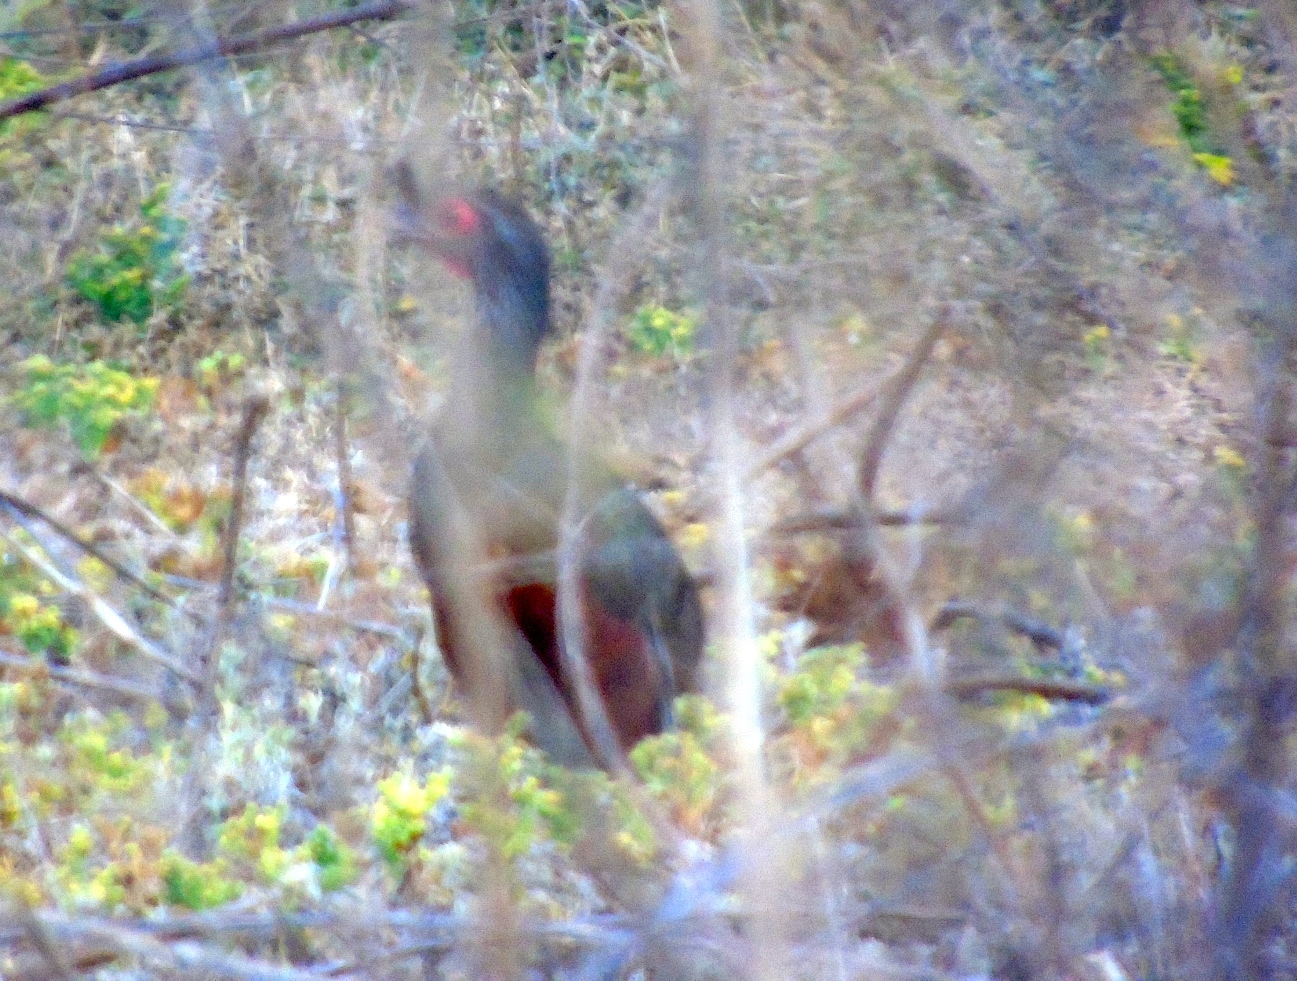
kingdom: Animalia
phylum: Chordata
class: Aves
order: Galliformes
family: Cracidae
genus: Ortalis
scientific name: Ortalis wagleri
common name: Rufous-bellied chachalaca
